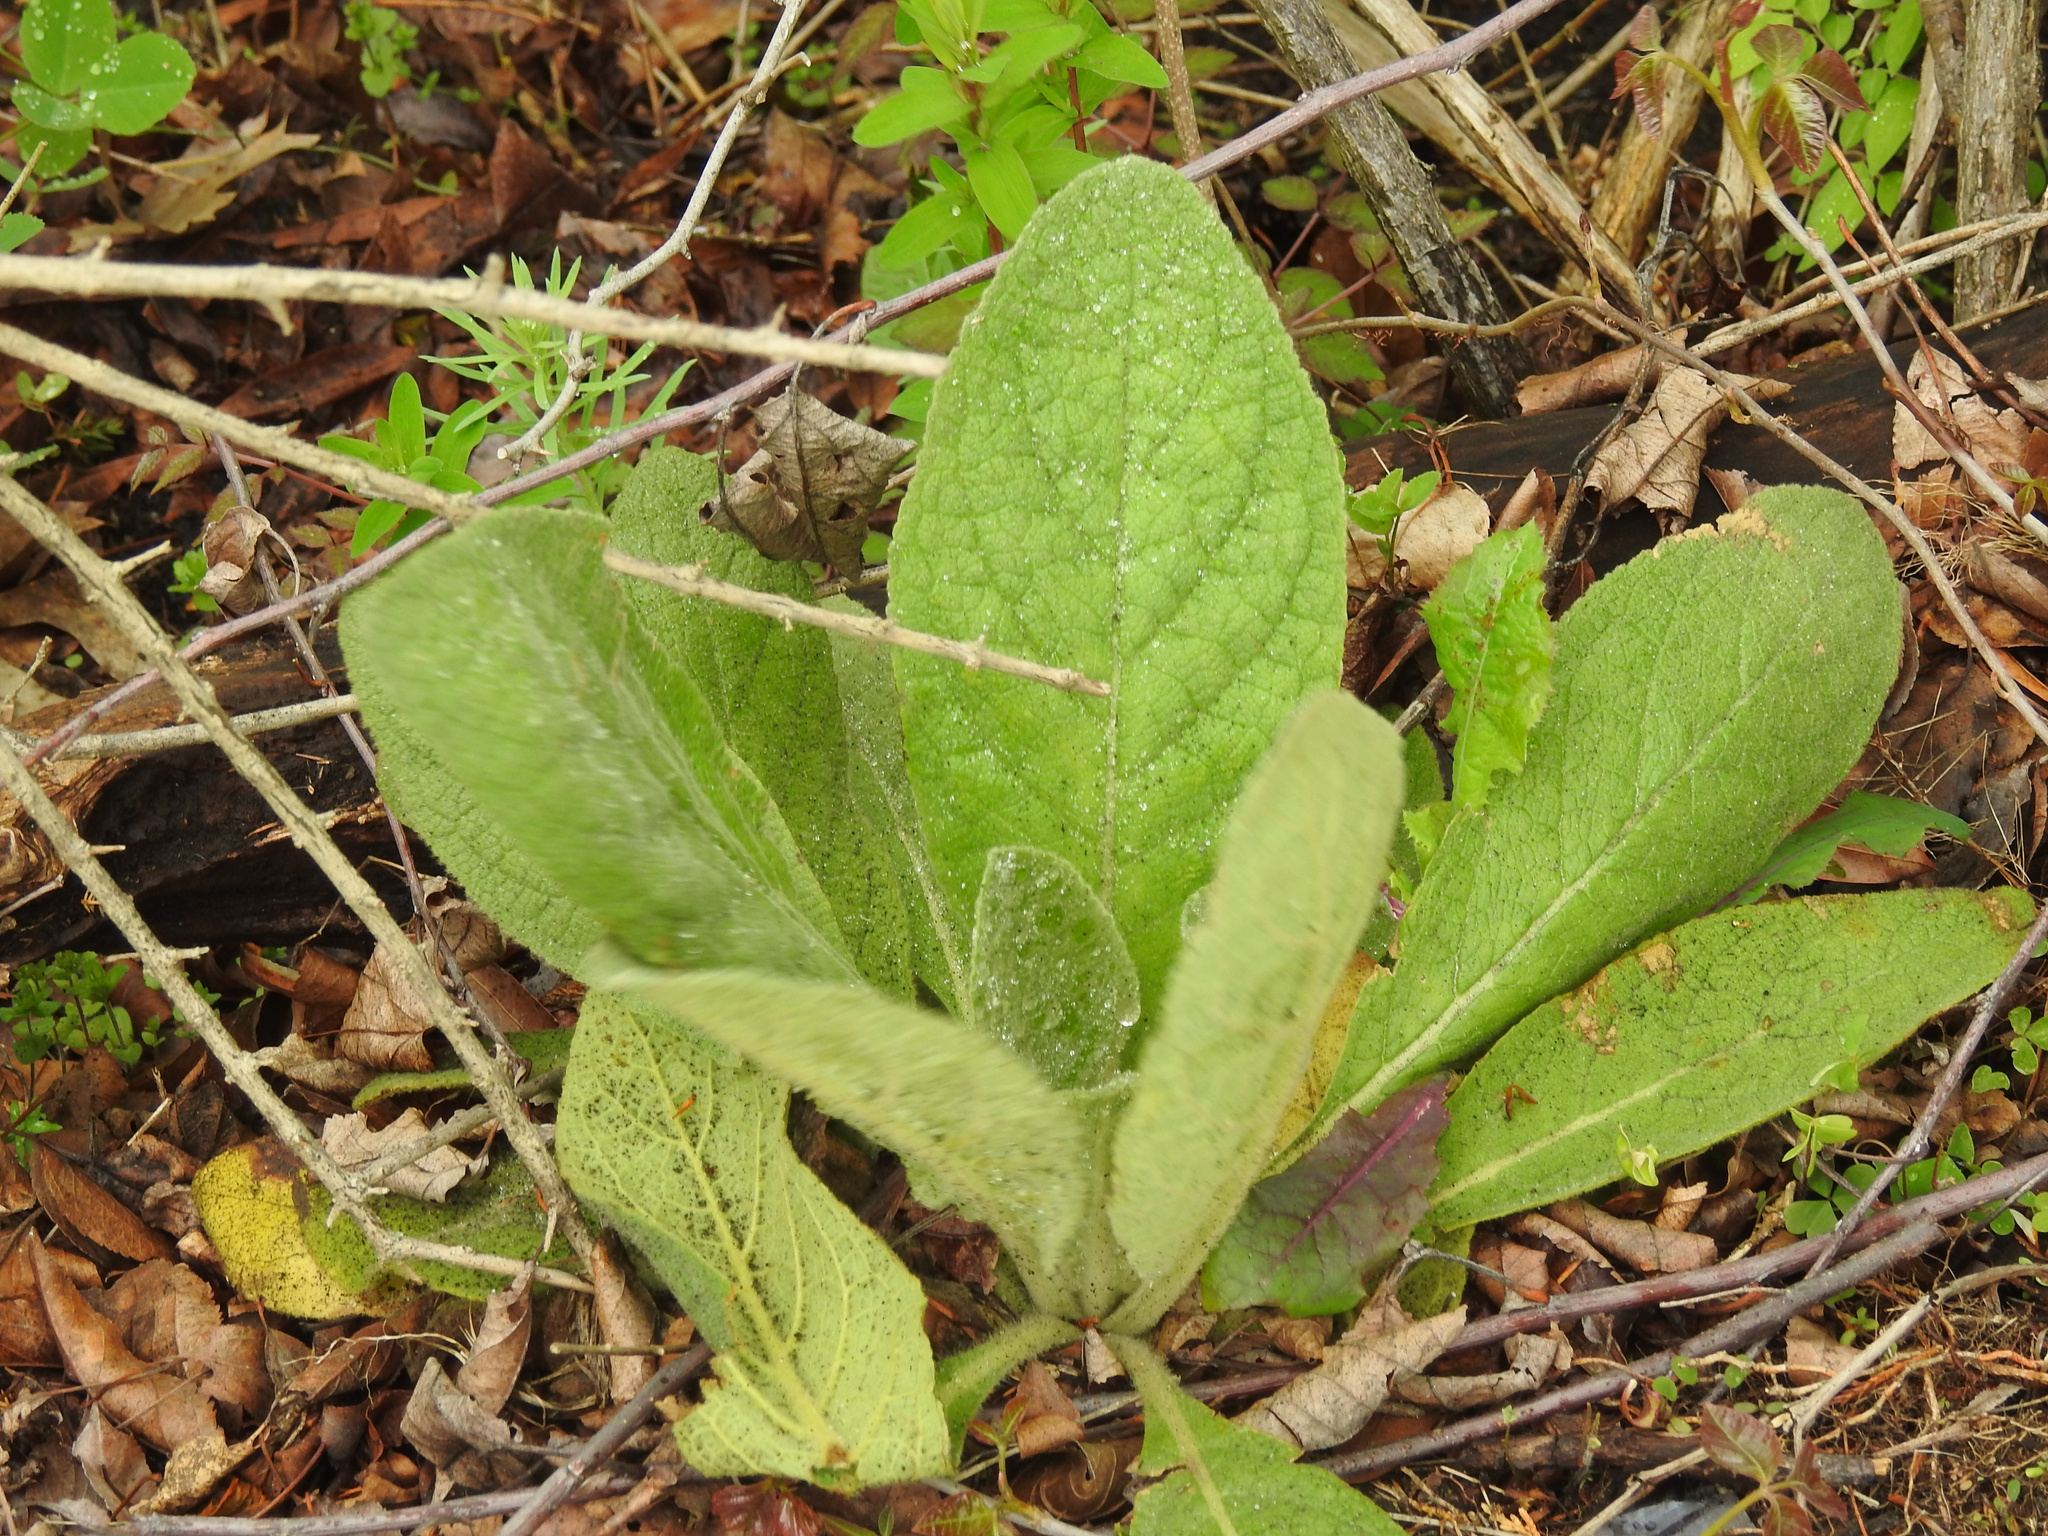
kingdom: Plantae
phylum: Tracheophyta
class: Magnoliopsida
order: Lamiales
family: Scrophulariaceae
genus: Verbascum
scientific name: Verbascum thapsus
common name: Common mullein
